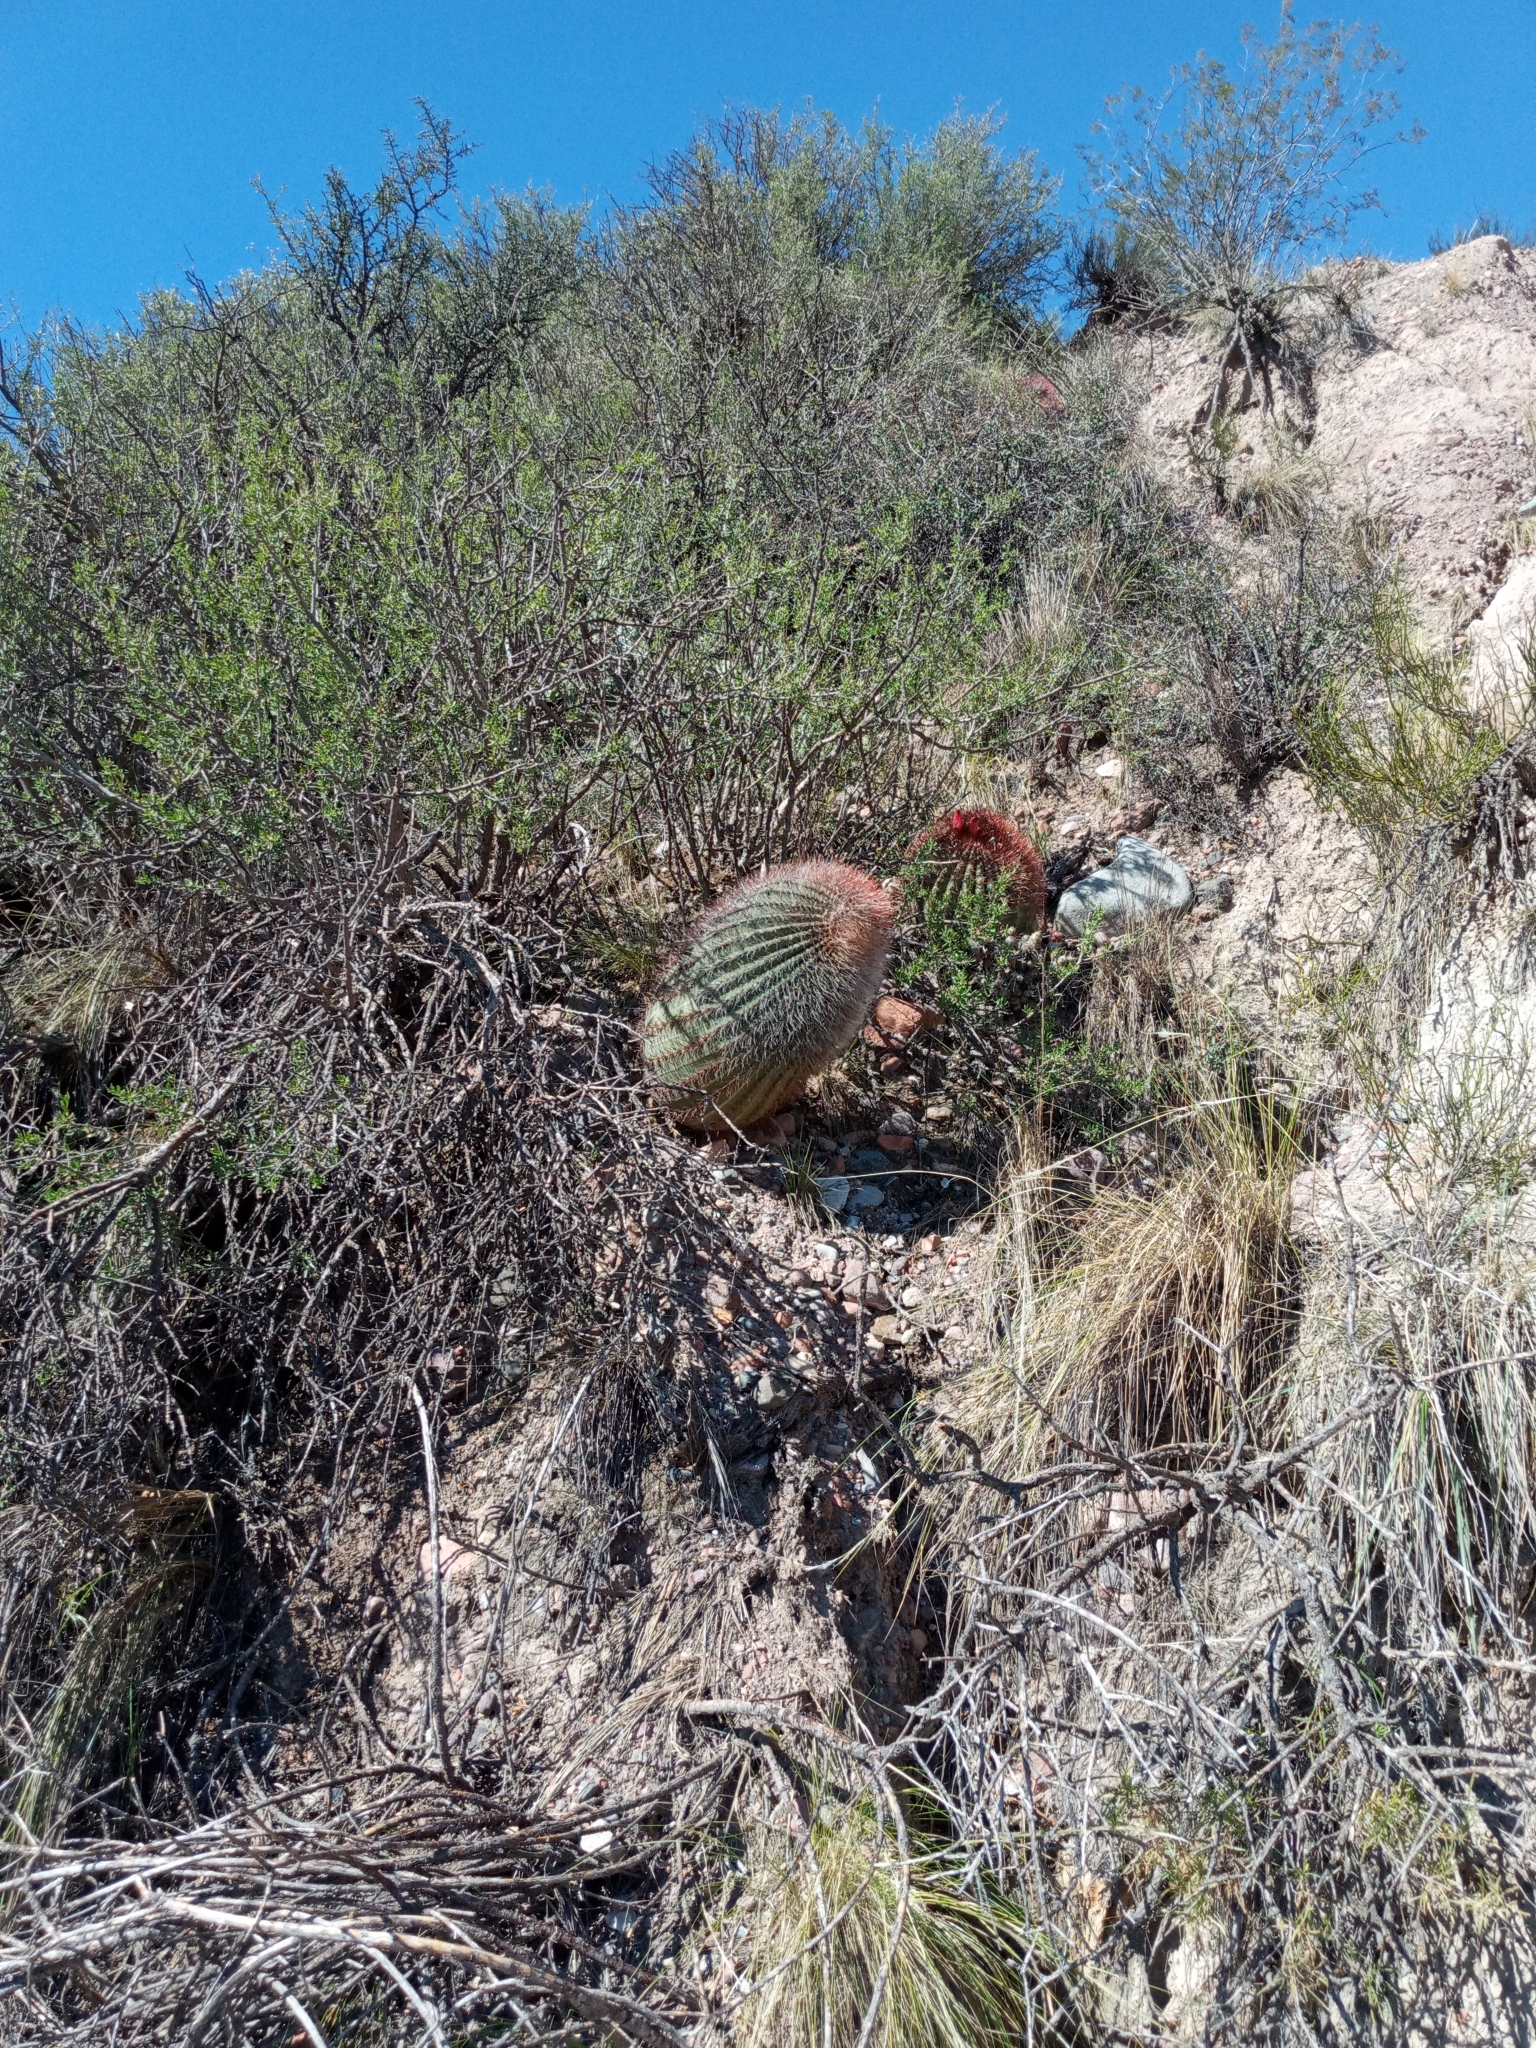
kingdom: Plantae
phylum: Tracheophyta
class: Magnoliopsida
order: Caryophyllales
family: Cactaceae
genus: Denmoza
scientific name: Denmoza rhodacantha
